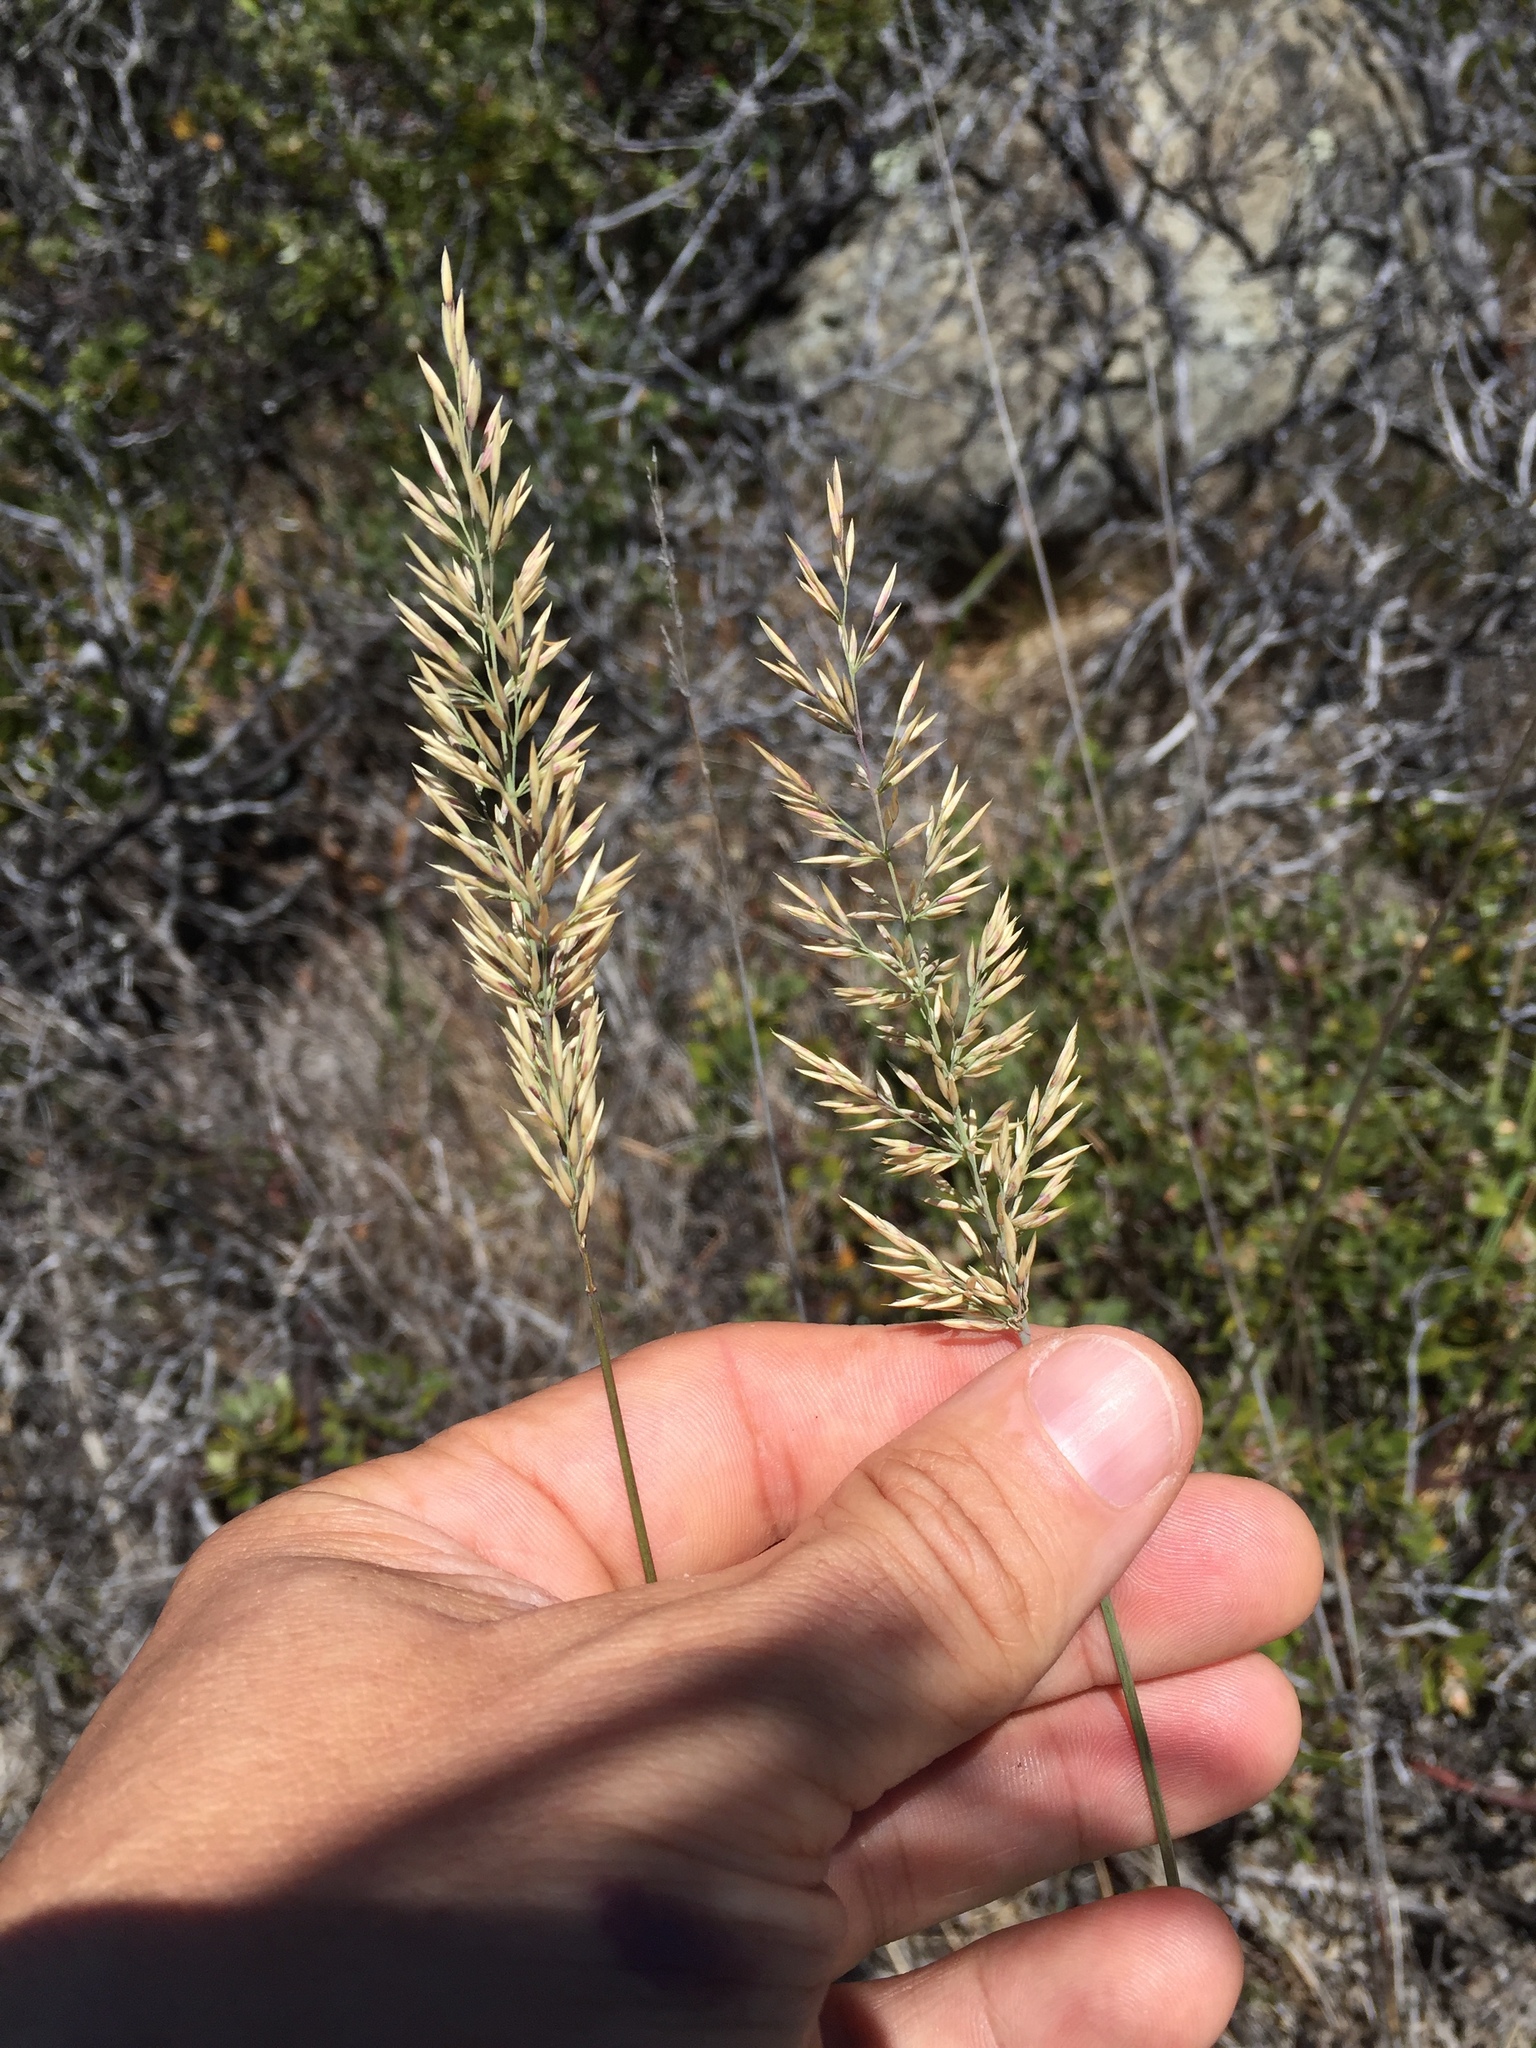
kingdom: Plantae
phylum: Tracheophyta
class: Liliopsida
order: Poales
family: Poaceae
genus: Calamagrostis
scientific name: Calamagrostis ophitidis
